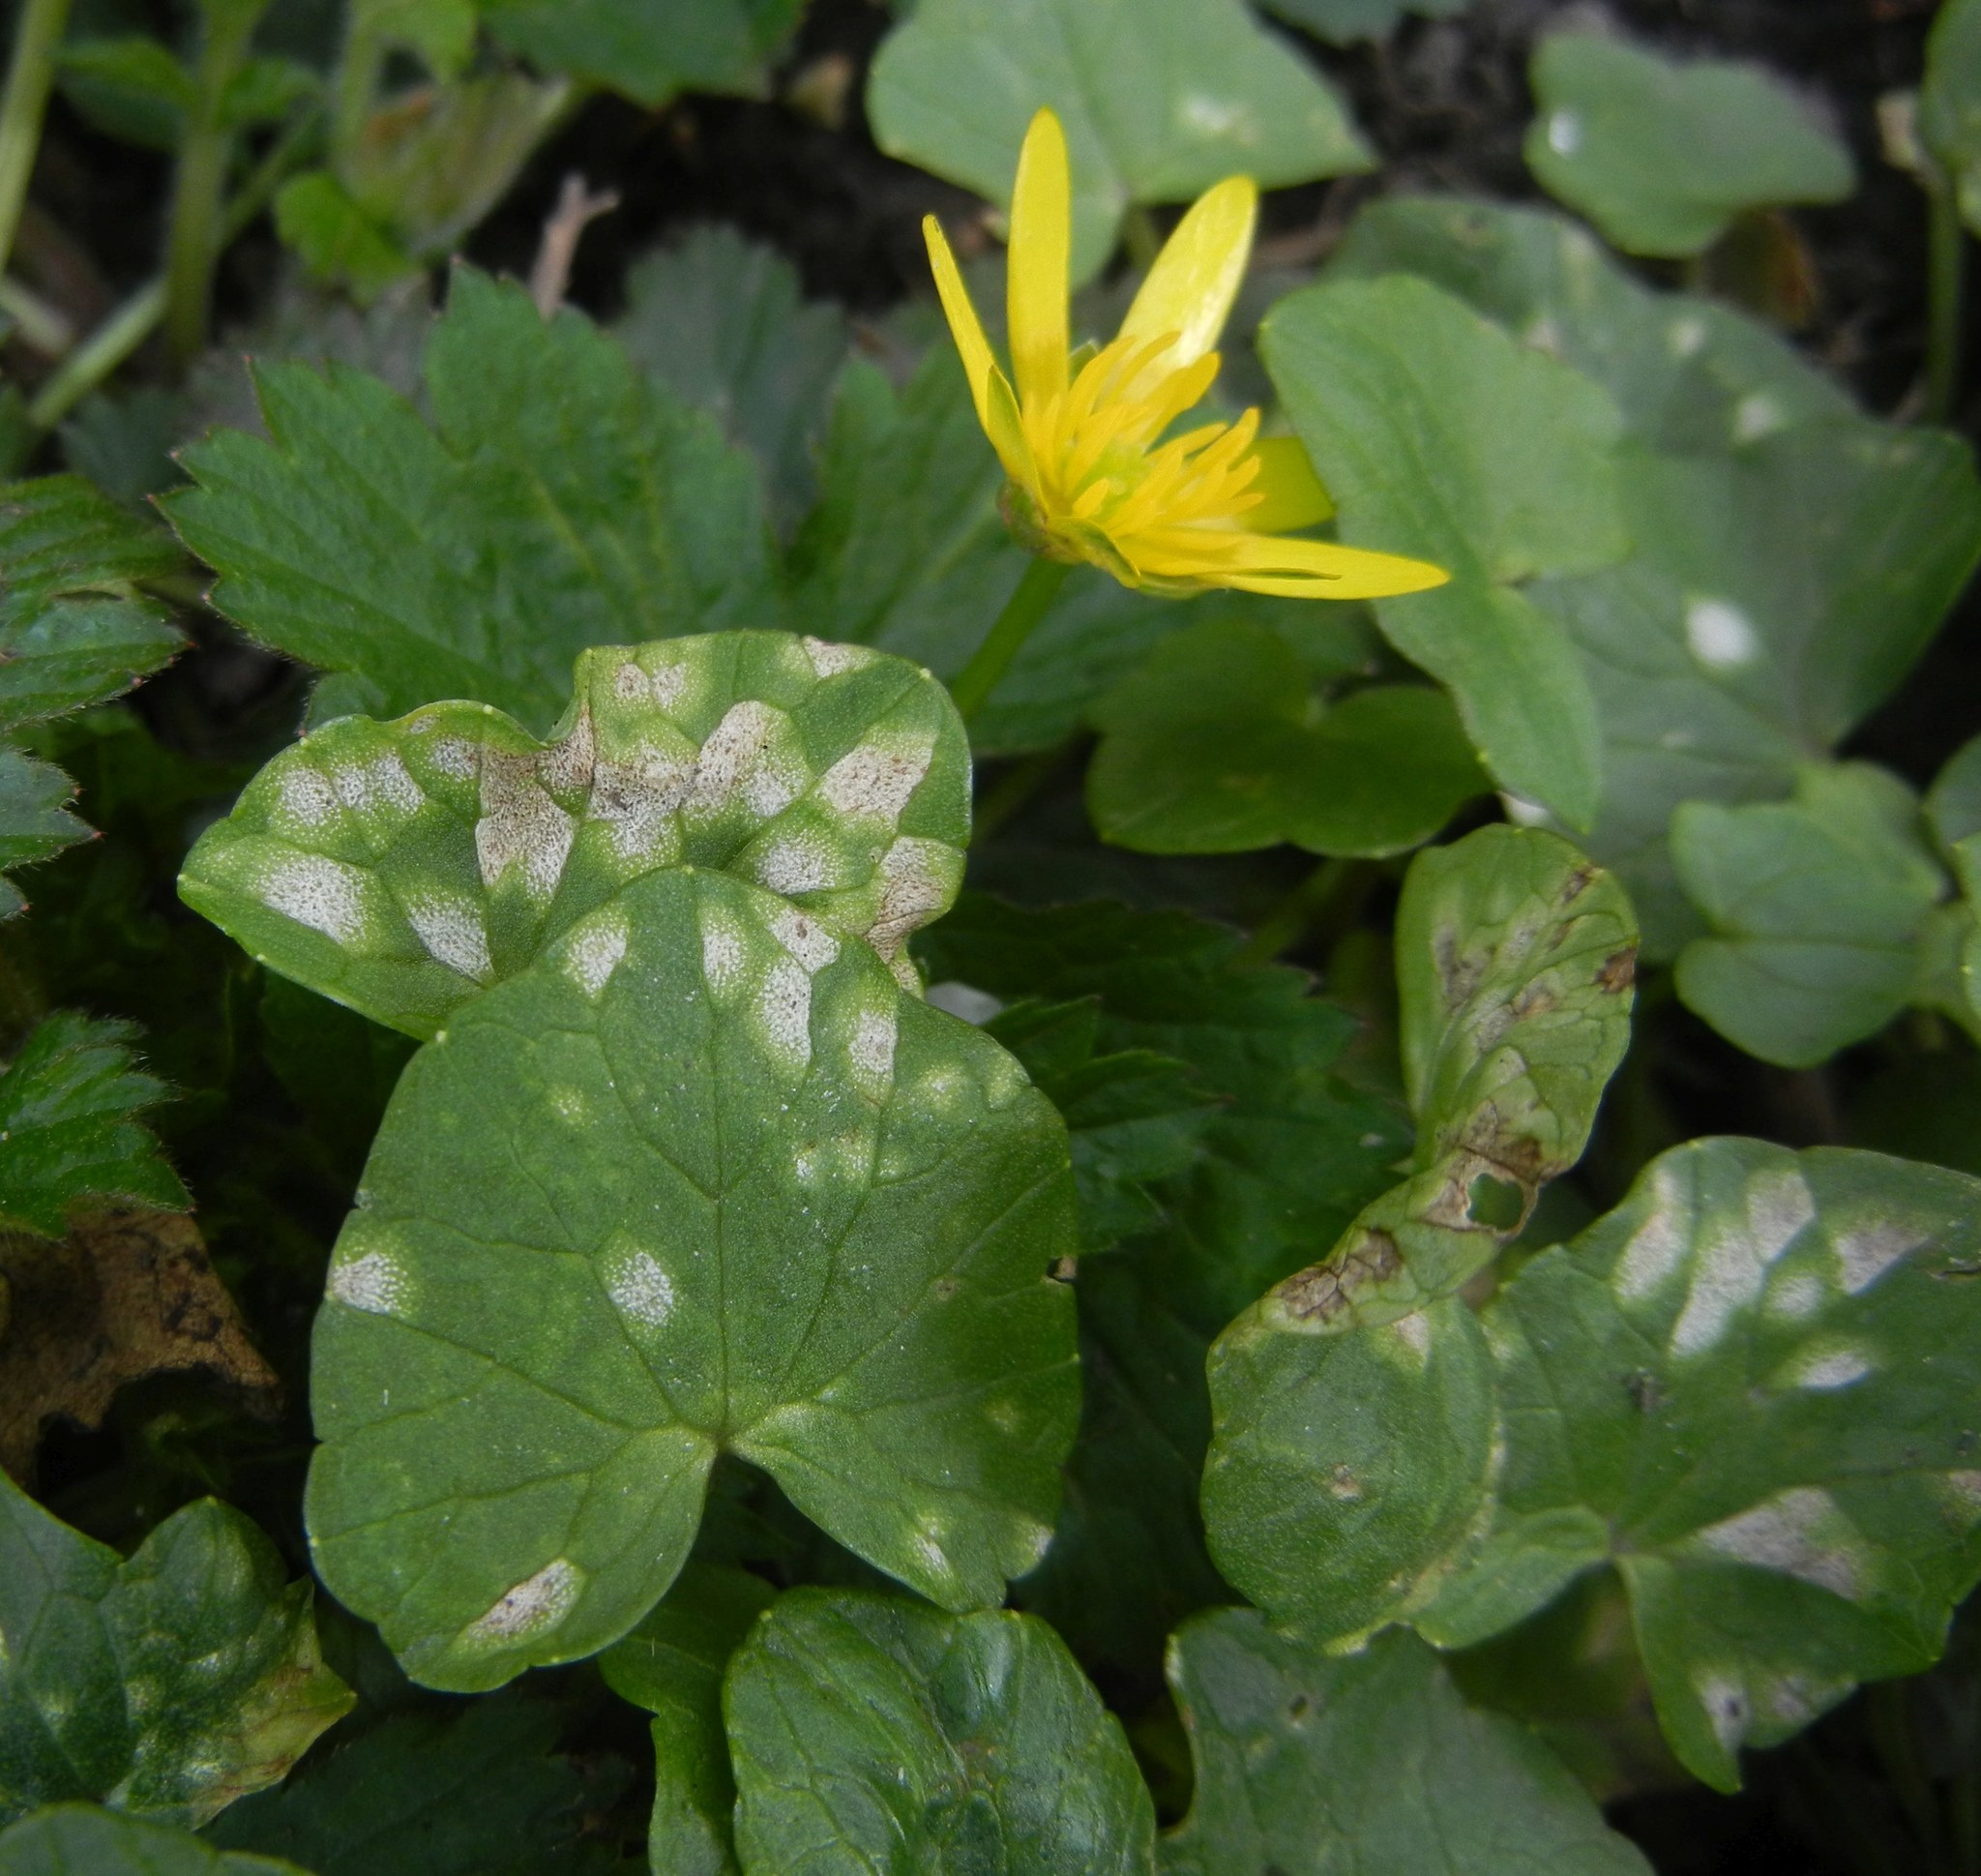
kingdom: Fungi
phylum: Basidiomycota
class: Exobasidiomycetes
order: Entylomatales
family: Entylomataceae
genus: Entyloma
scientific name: Entyloma ficariae
